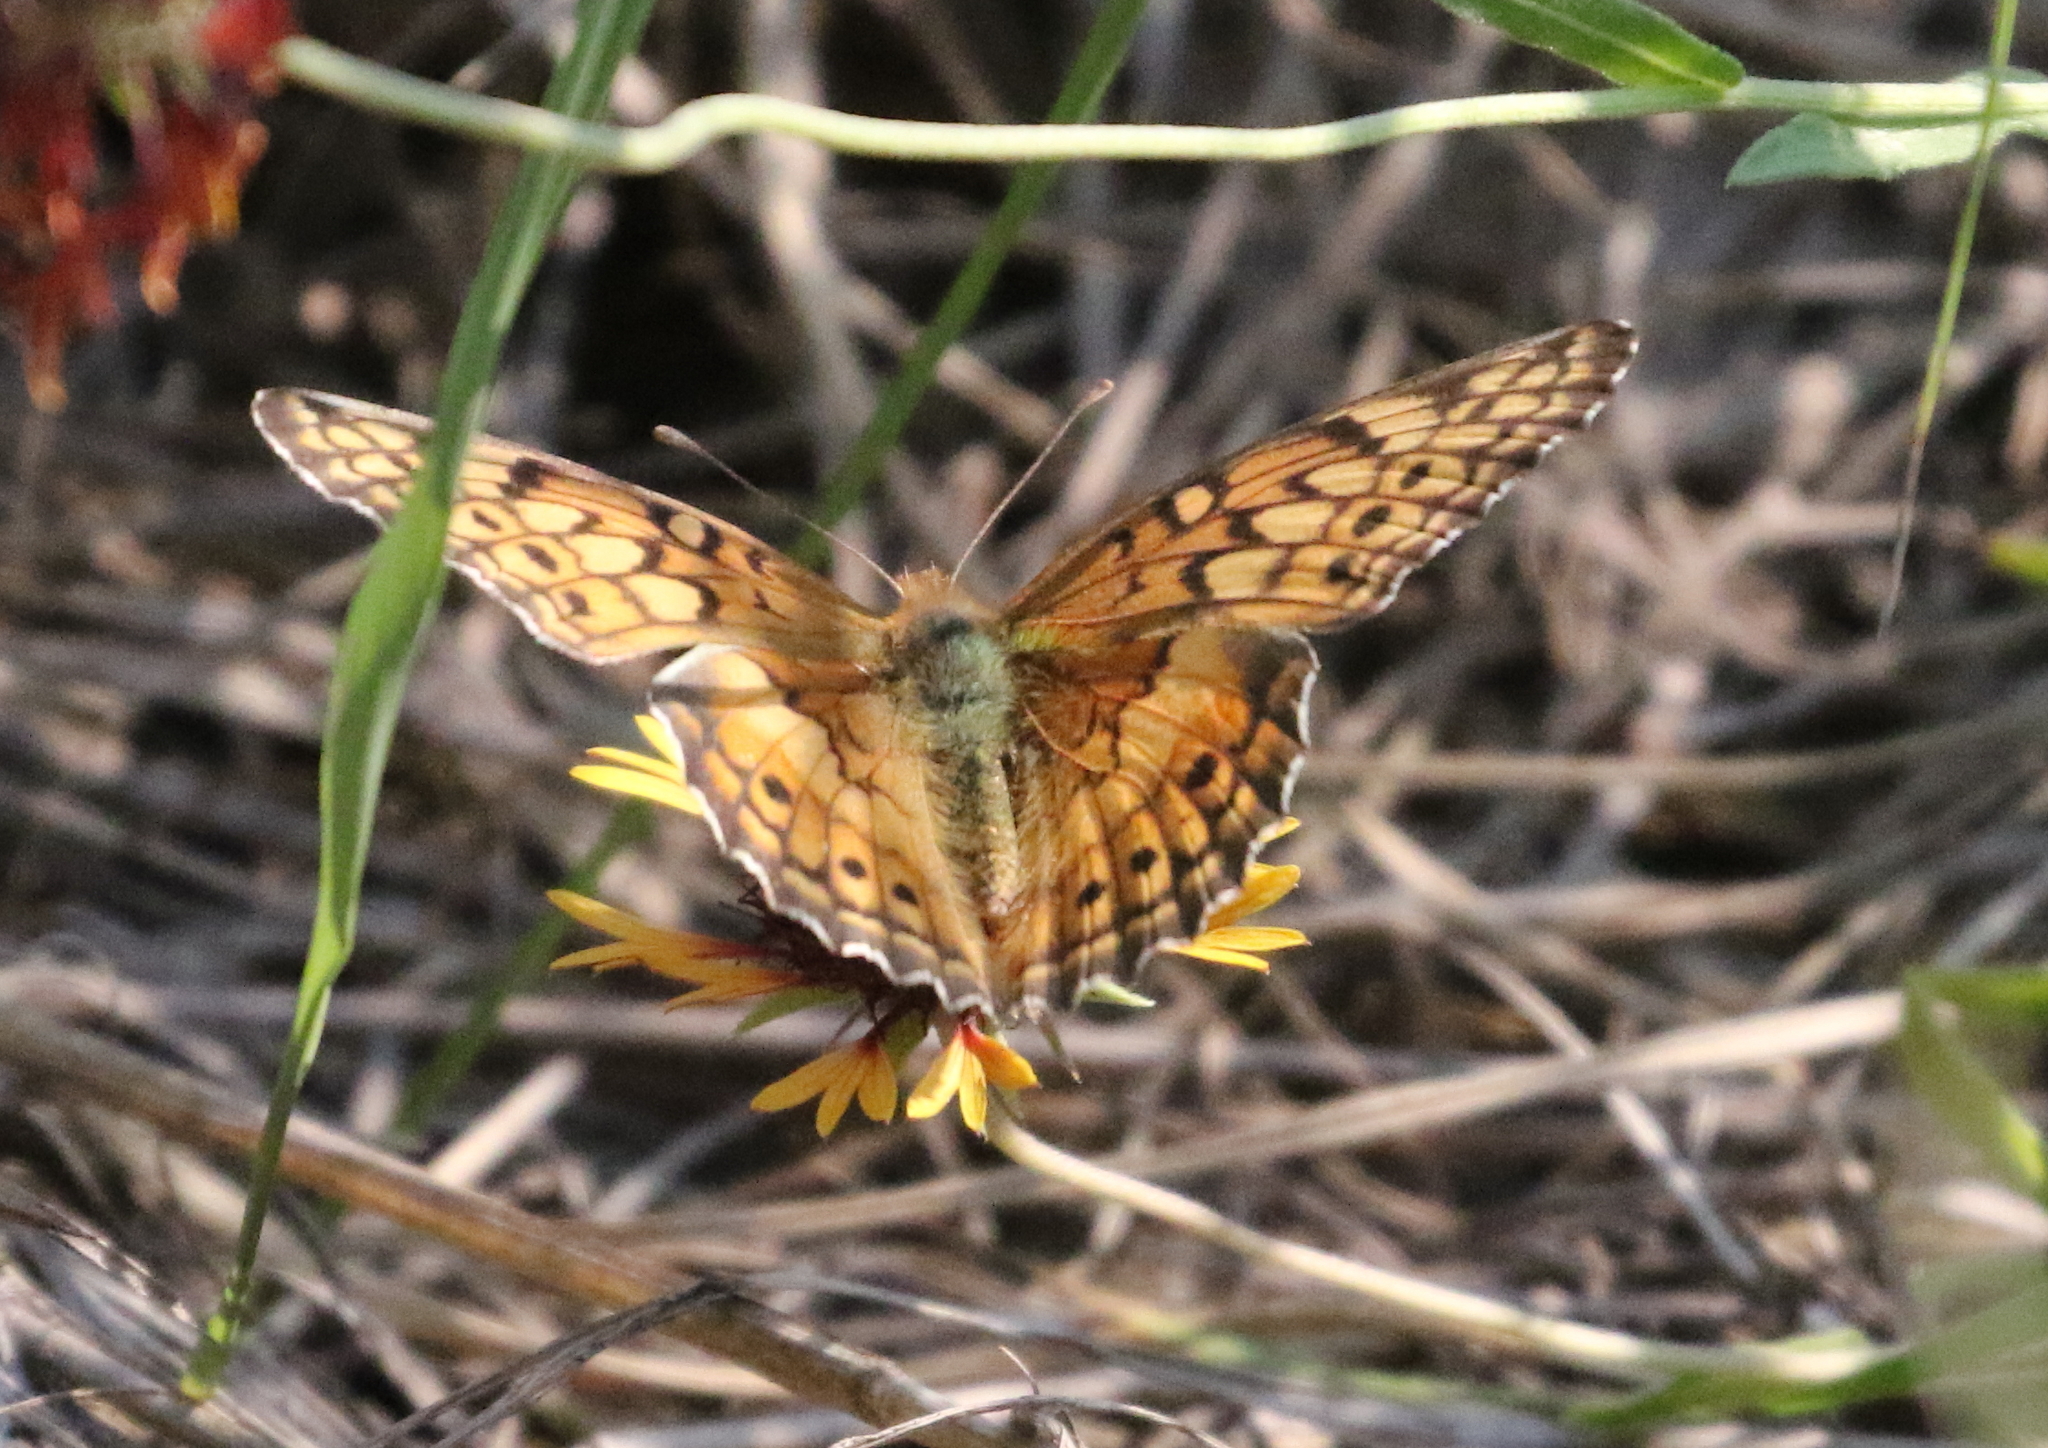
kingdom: Animalia
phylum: Arthropoda
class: Insecta
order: Lepidoptera
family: Nymphalidae
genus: Euptoieta
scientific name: Euptoieta claudia
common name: Variegated fritillary
